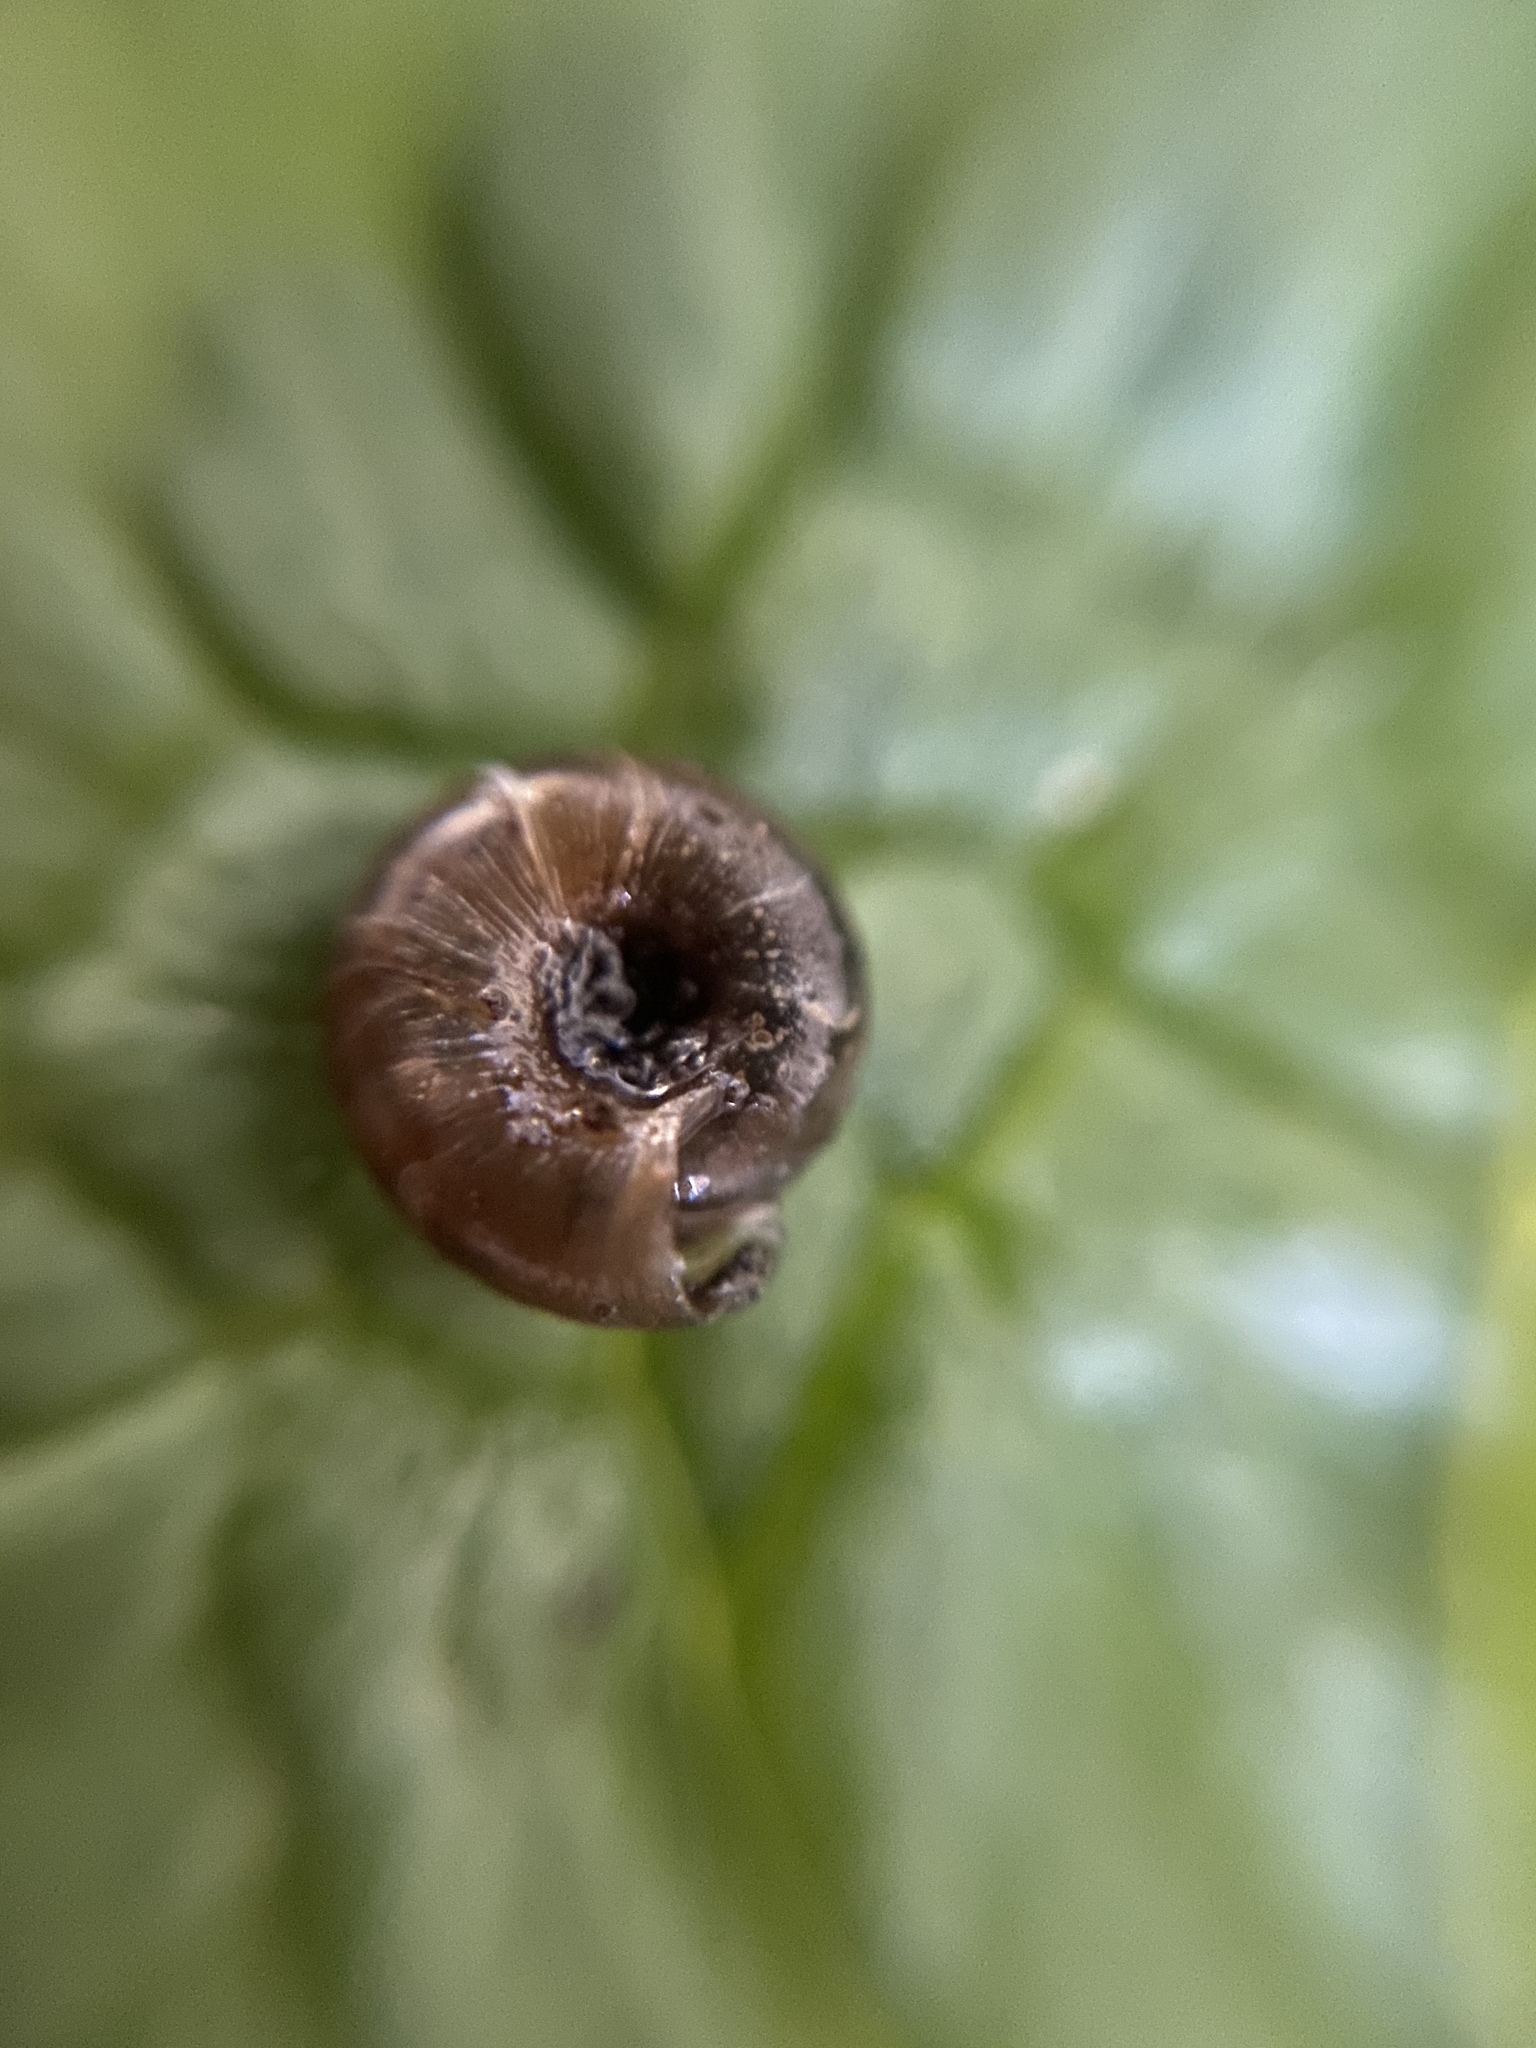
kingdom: Animalia
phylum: Mollusca
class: Gastropoda
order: Stylommatophora
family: Discidae
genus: Discus
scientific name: Discus rotundatus
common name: Rounded snail
